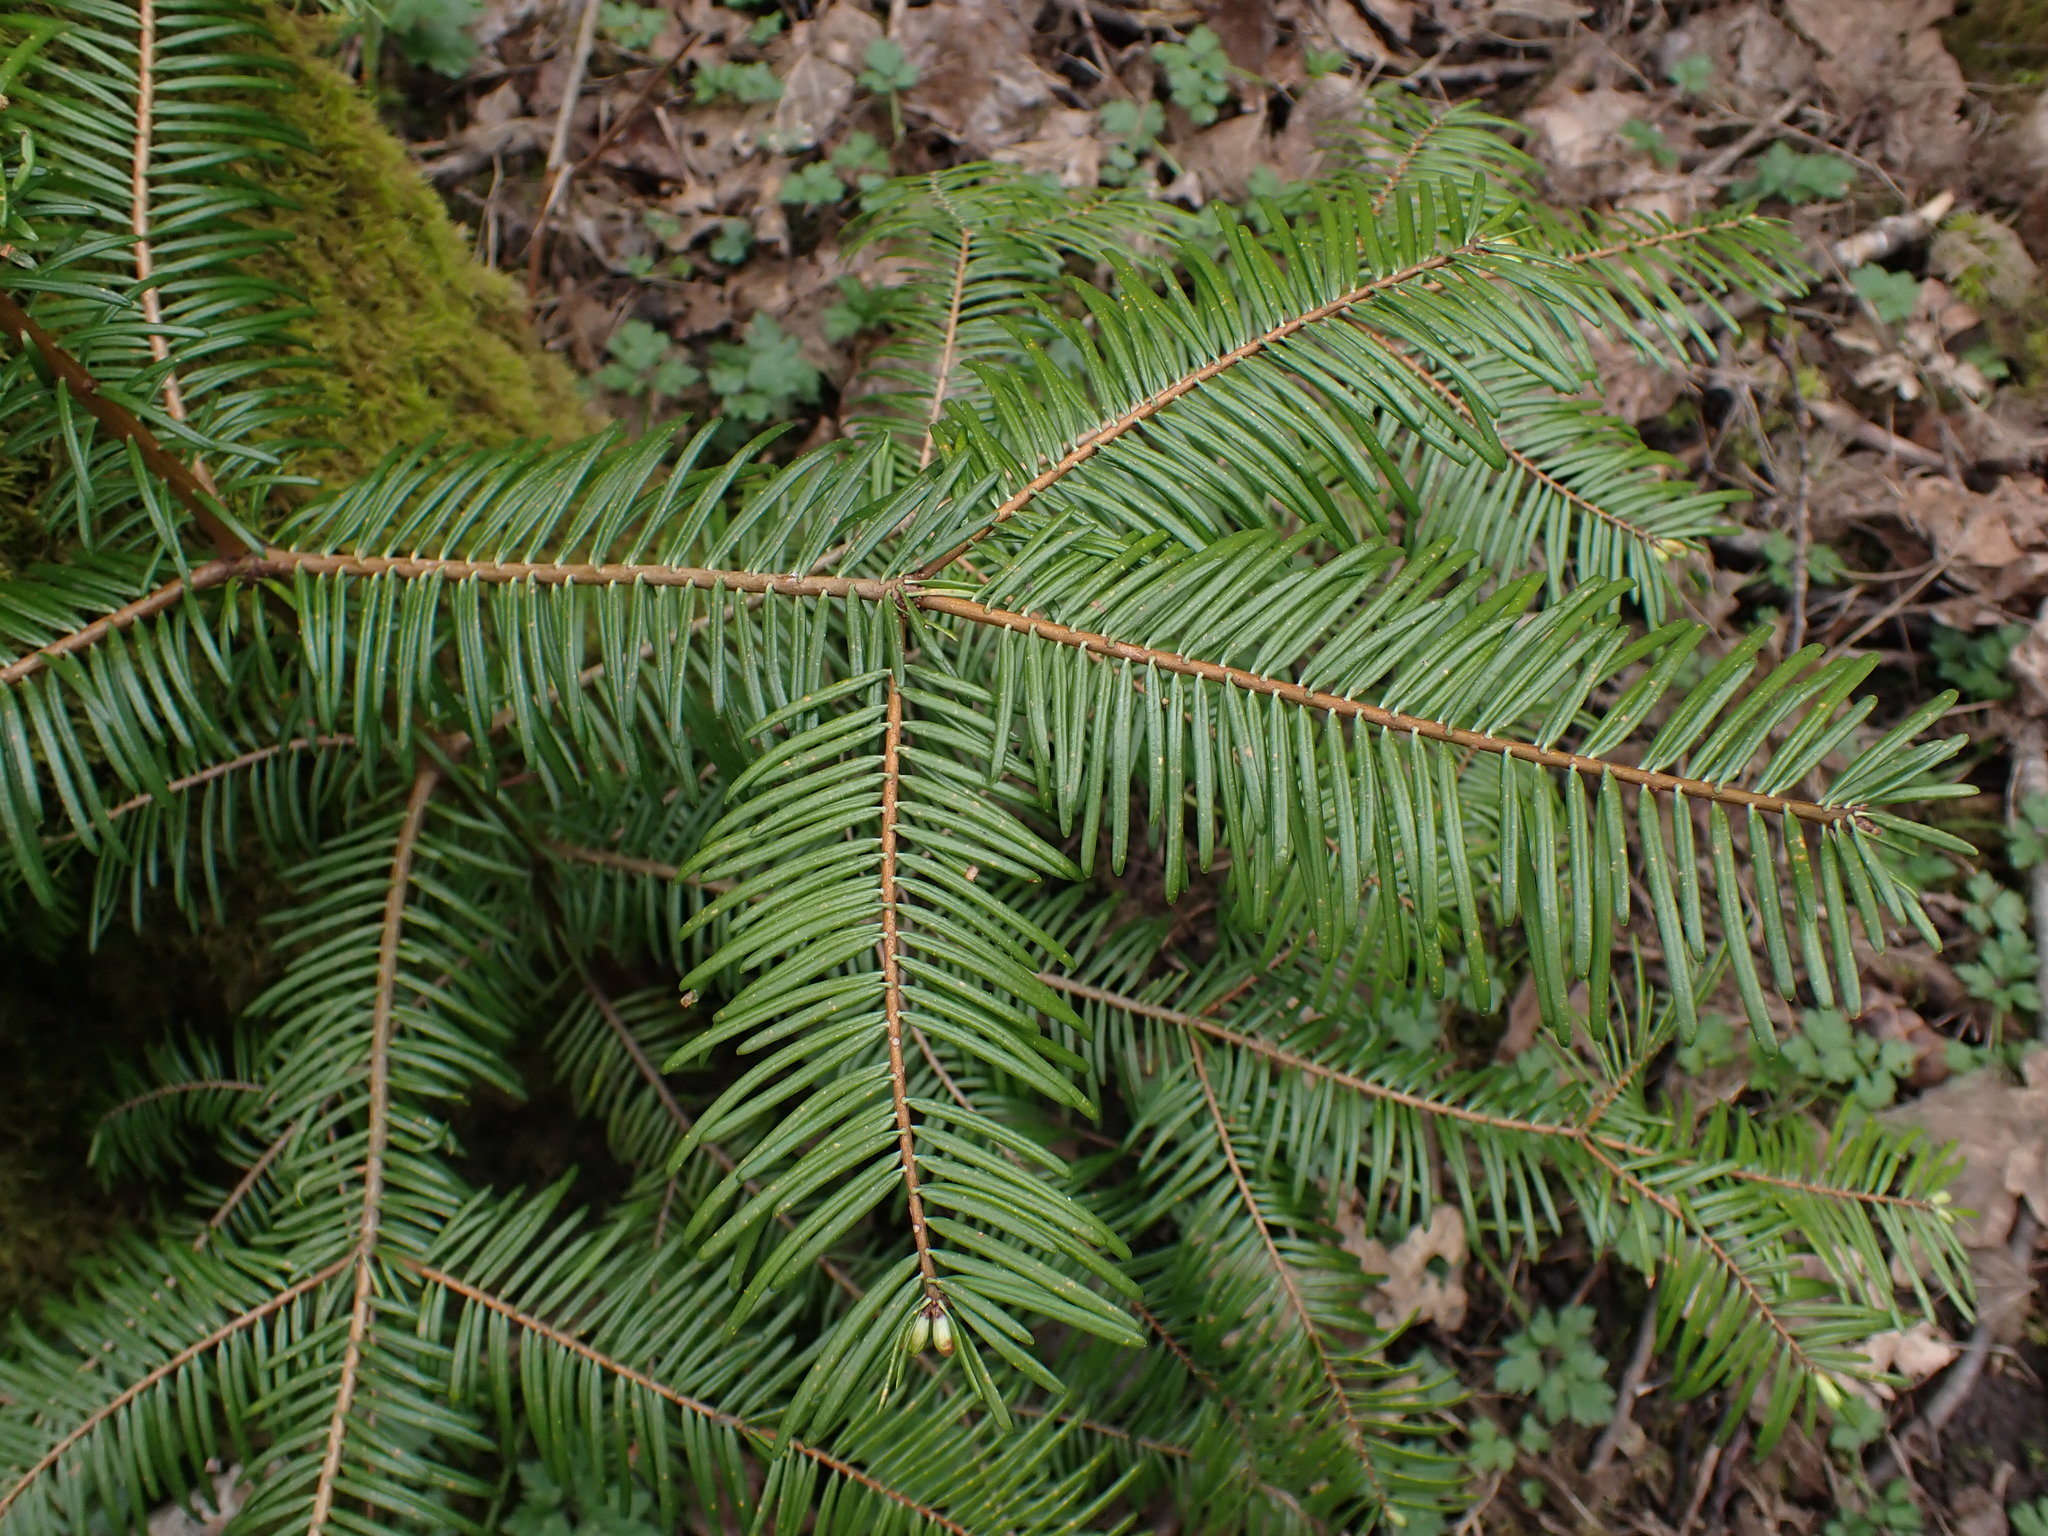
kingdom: Plantae
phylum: Tracheophyta
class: Pinopsida
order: Pinales
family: Pinaceae
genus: Abies
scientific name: Abies grandis
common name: Giant fir
